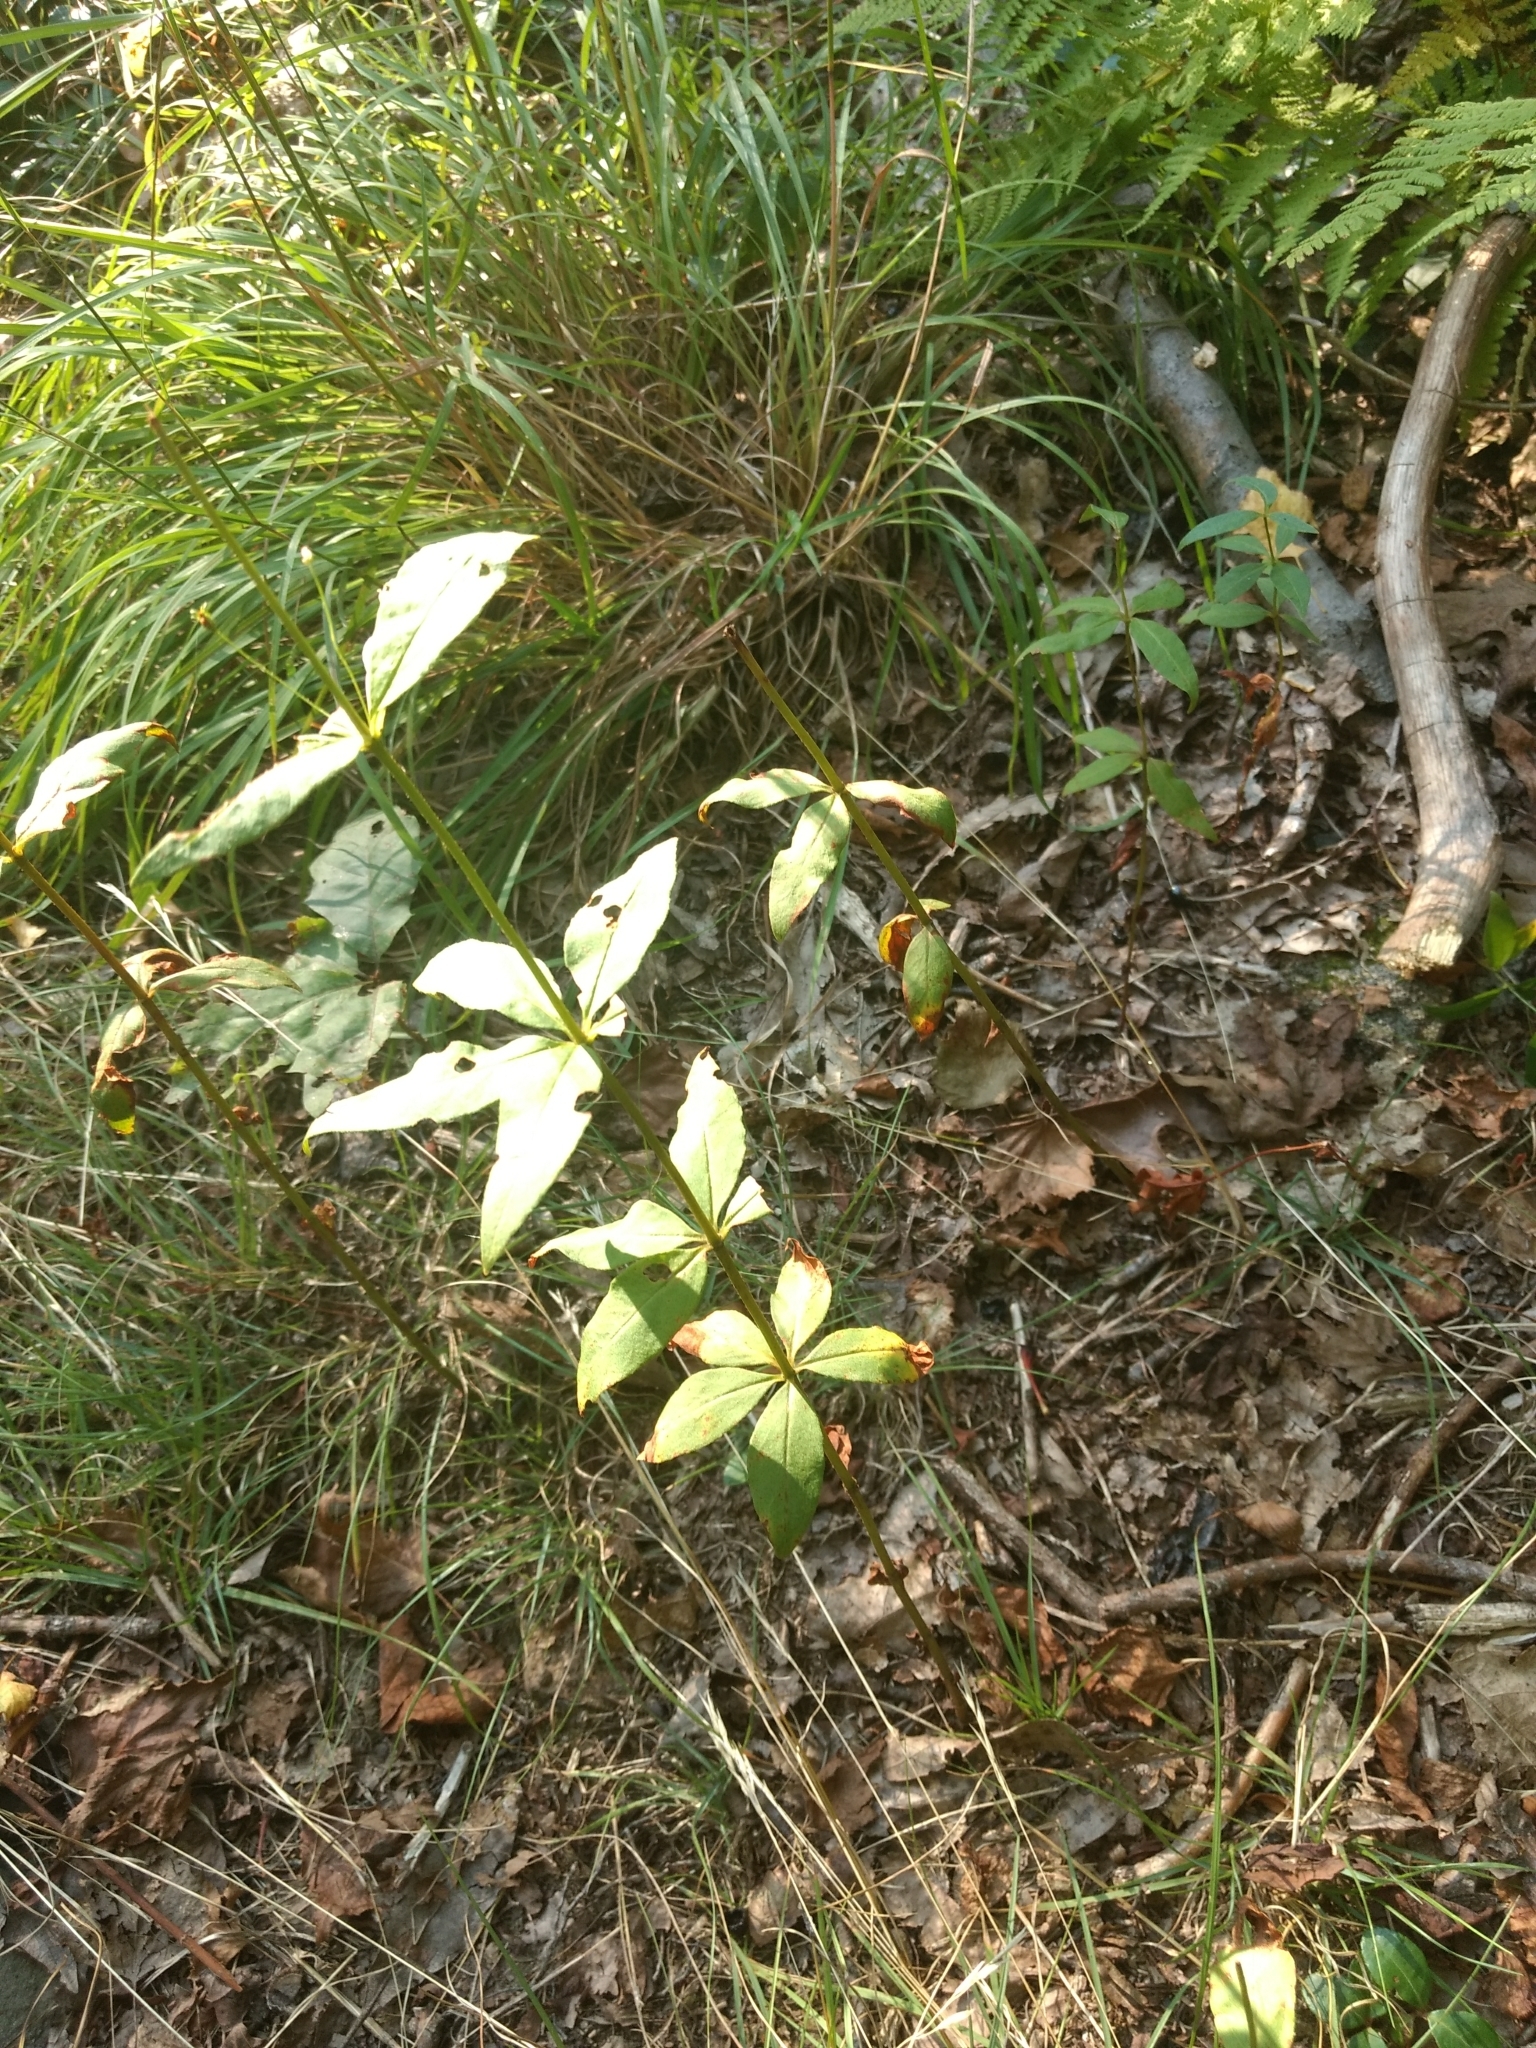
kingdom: Plantae
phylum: Tracheophyta
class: Magnoliopsida
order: Ericales
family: Primulaceae
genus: Lysimachia
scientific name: Lysimachia quadrifolia
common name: Whorled loosestrife
